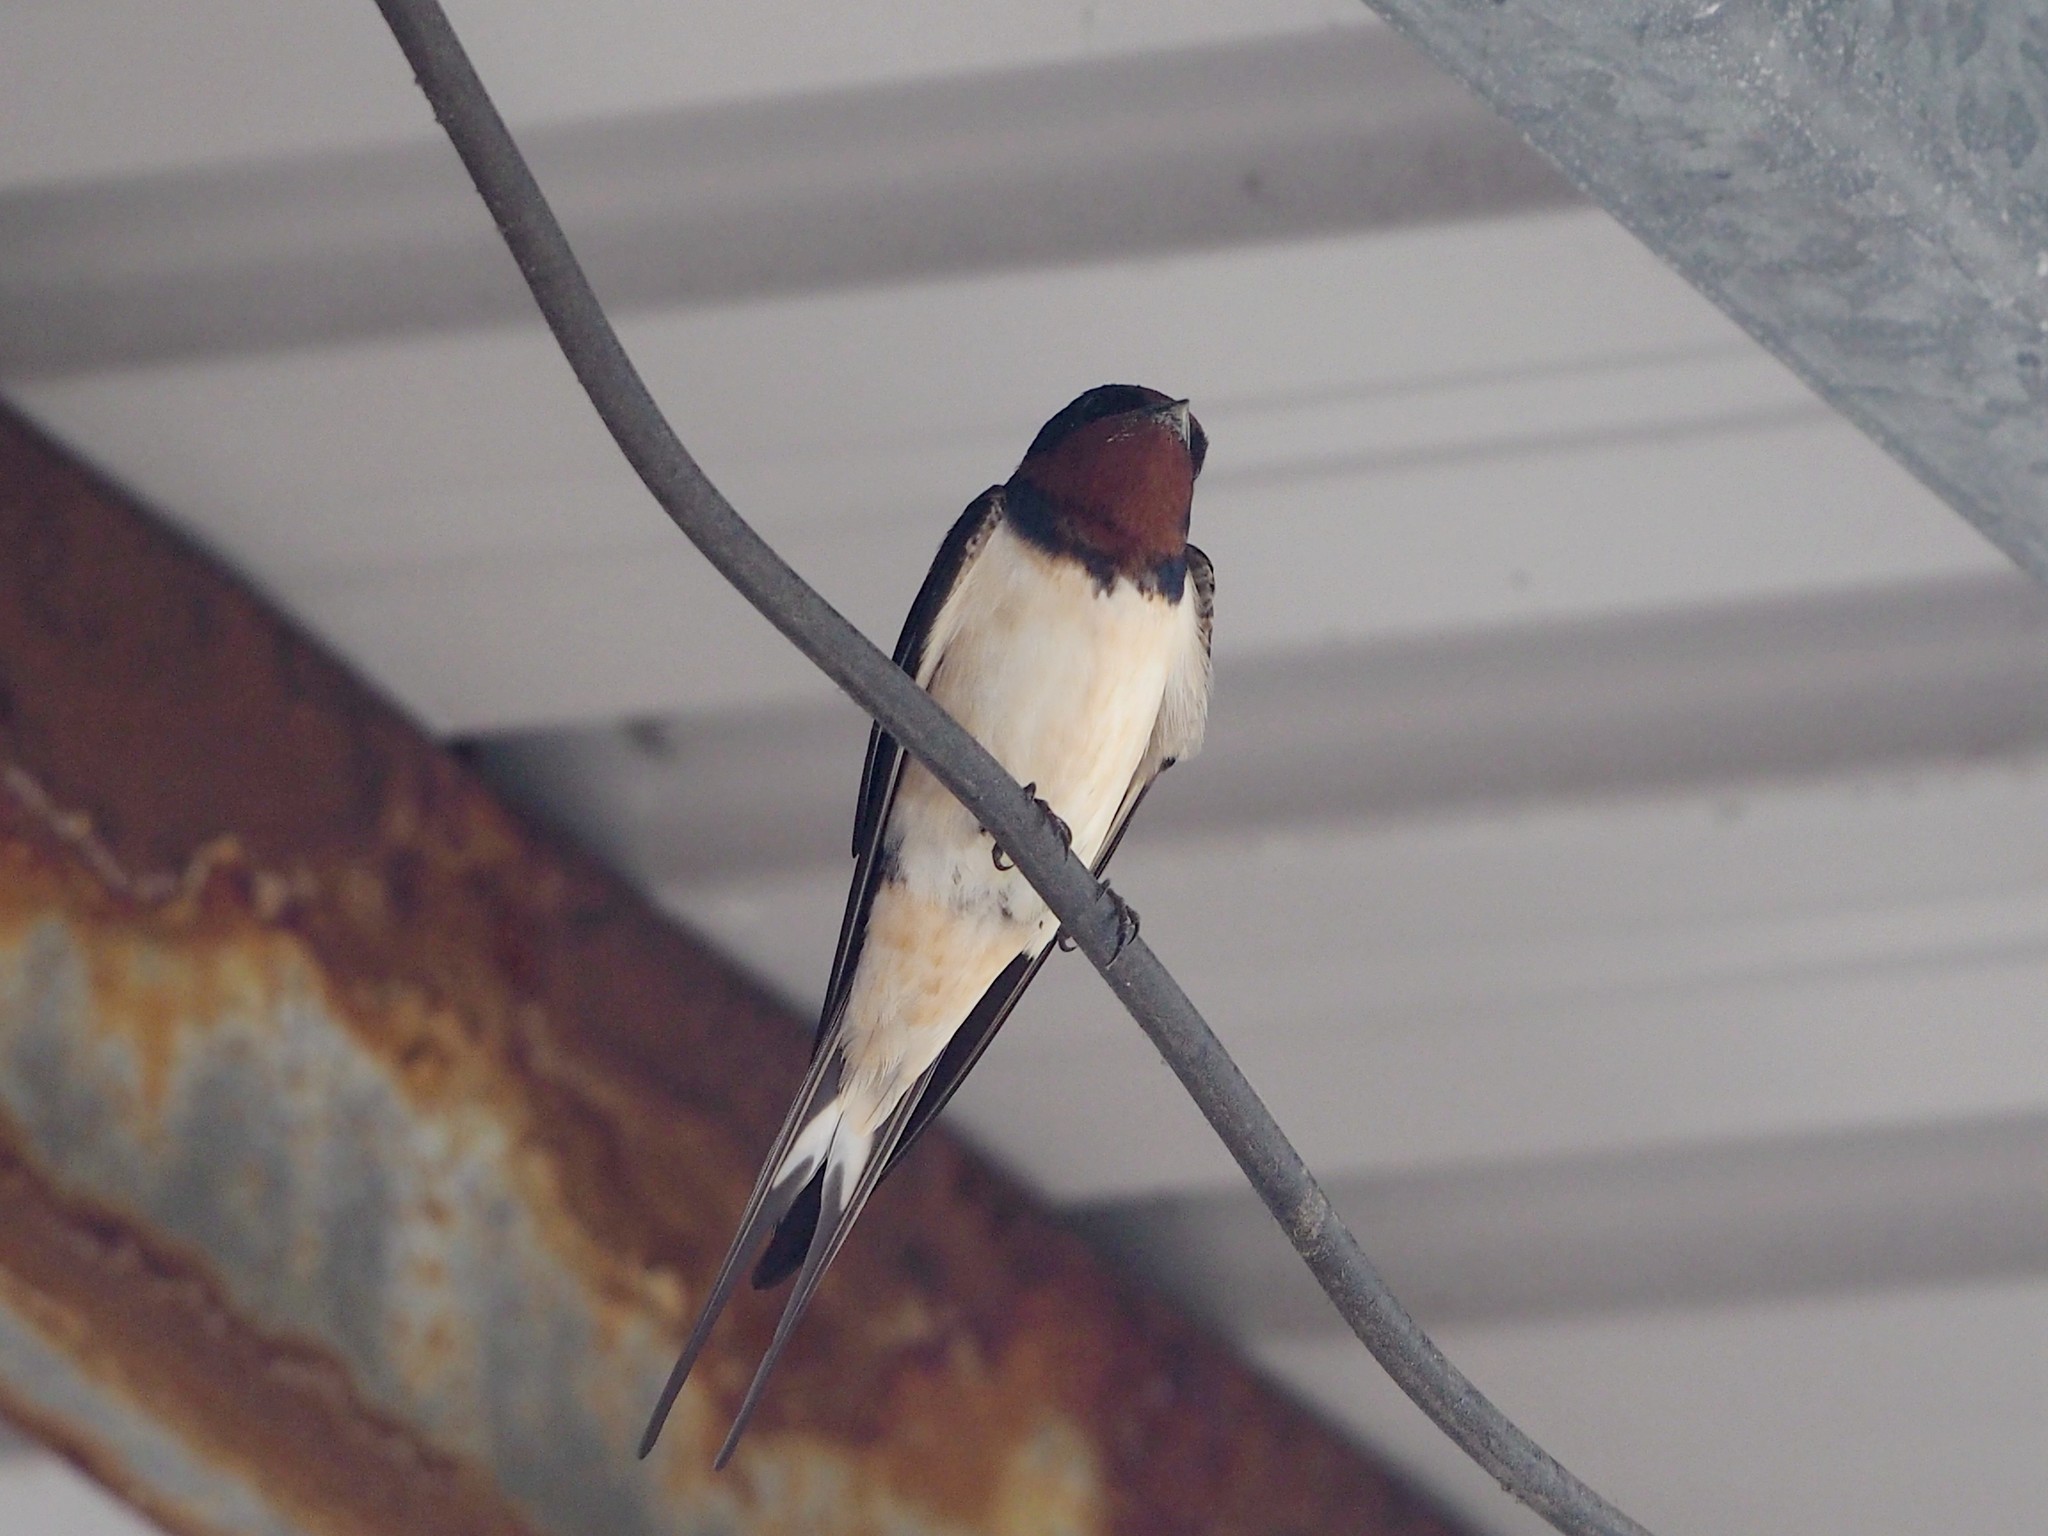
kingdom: Animalia
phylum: Chordata
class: Aves
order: Passeriformes
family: Hirundinidae
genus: Hirundo
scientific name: Hirundo rustica
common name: Barn swallow
